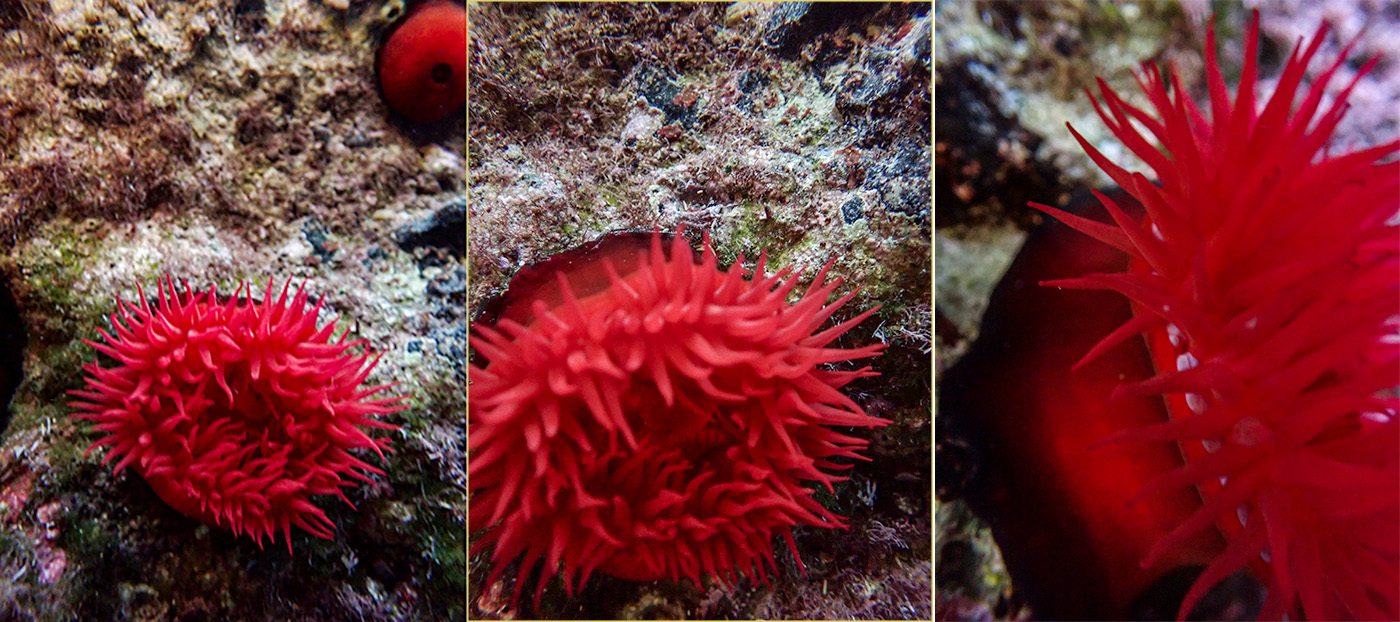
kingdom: Animalia
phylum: Cnidaria
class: Anthozoa
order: Actiniaria
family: Actiniidae
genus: Actinia
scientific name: Actinia mediterranea
